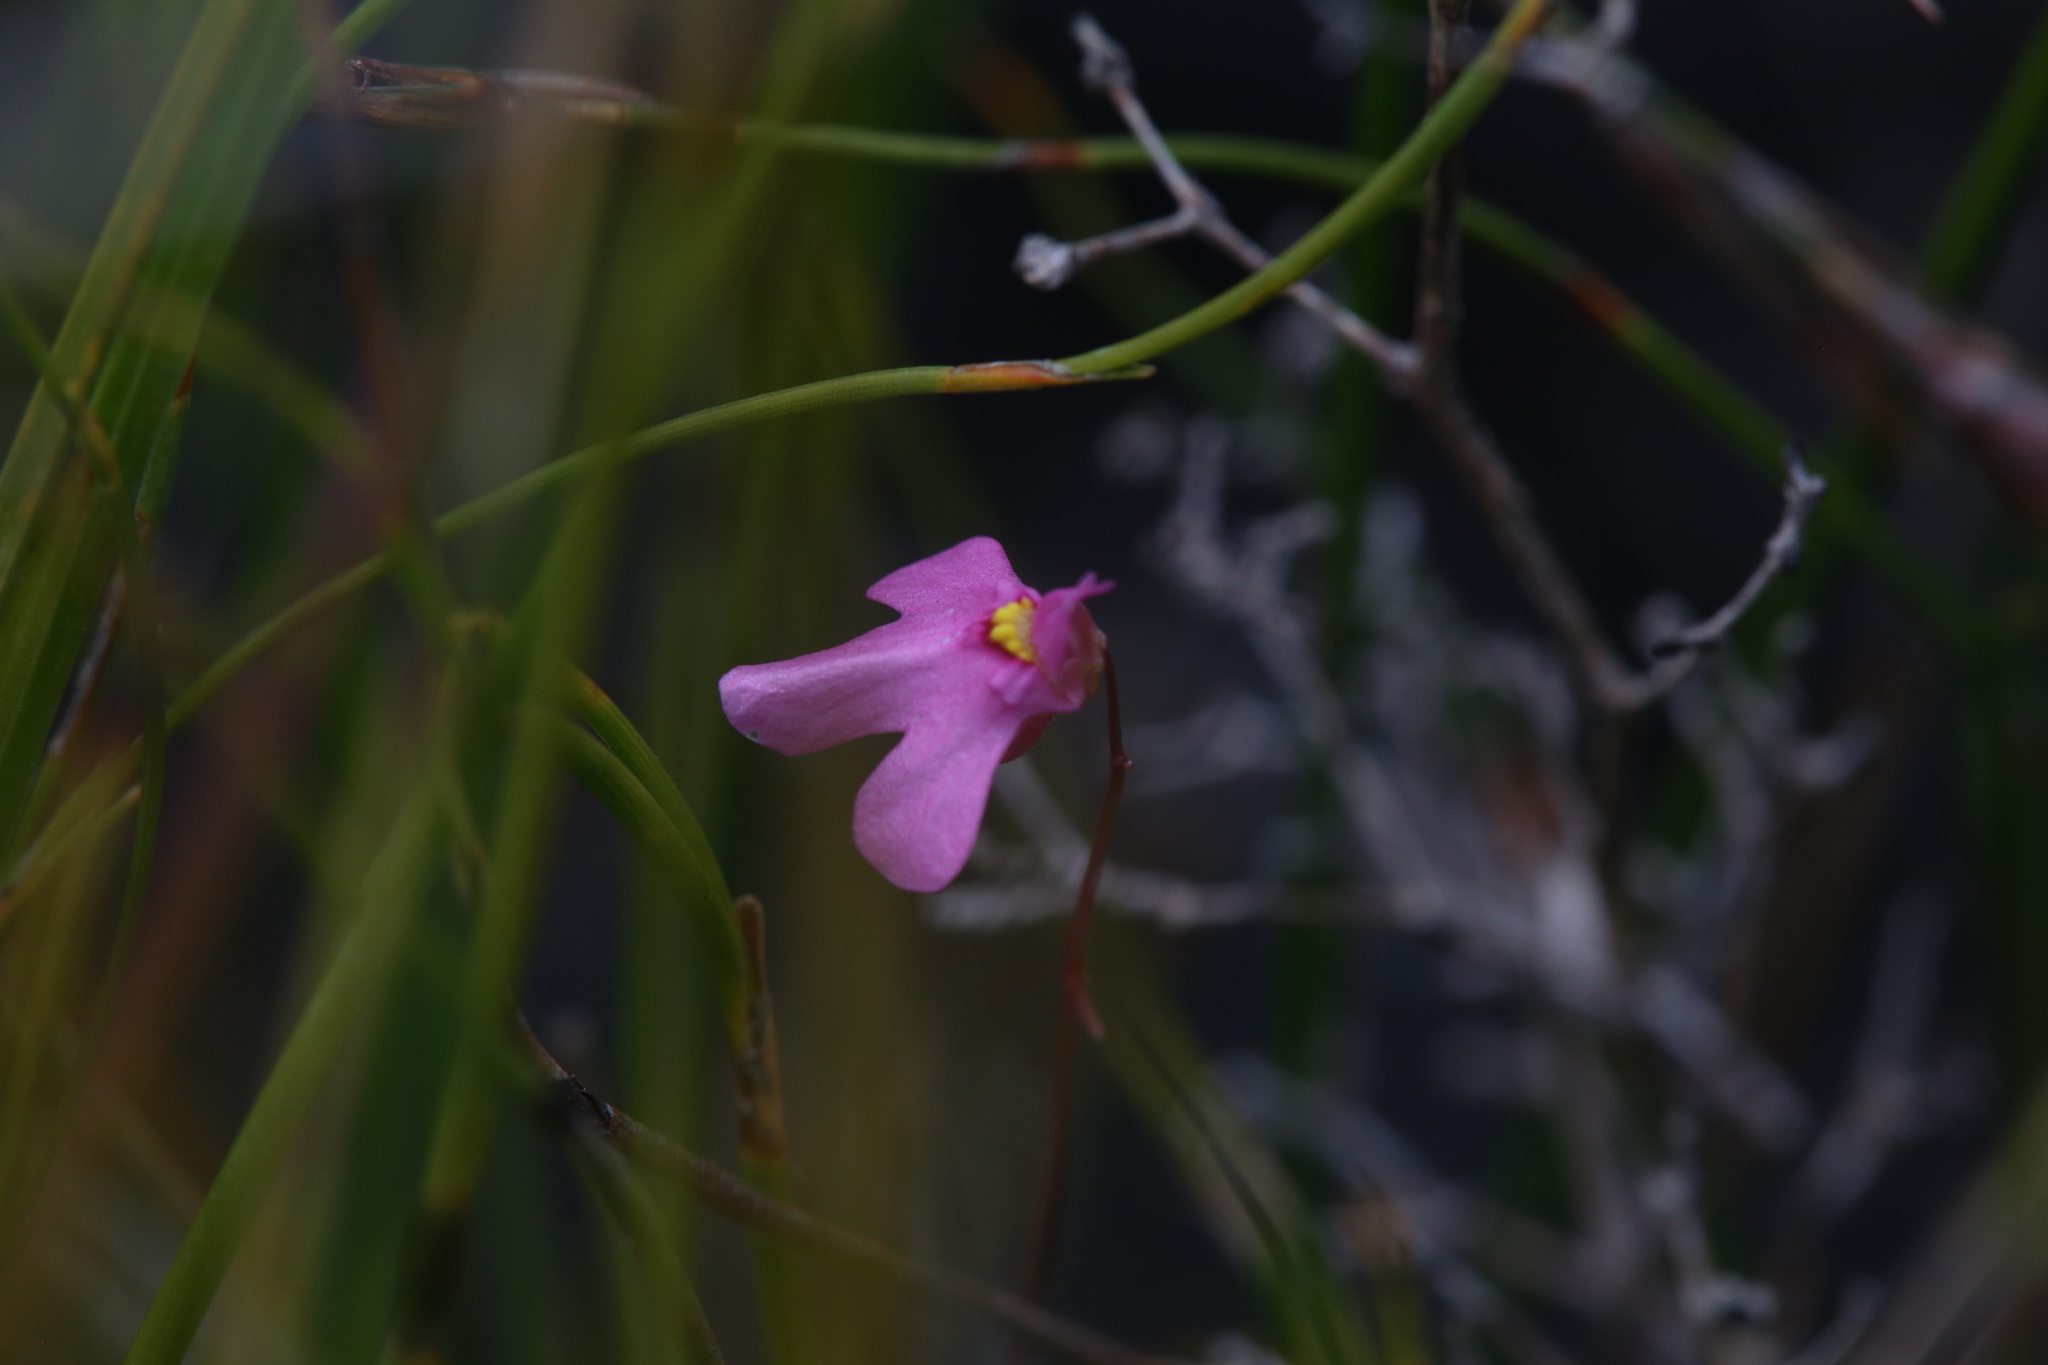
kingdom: Plantae
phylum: Tracheophyta
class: Magnoliopsida
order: Lamiales
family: Lentibulariaceae
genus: Utricularia
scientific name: Utricularia multifida
